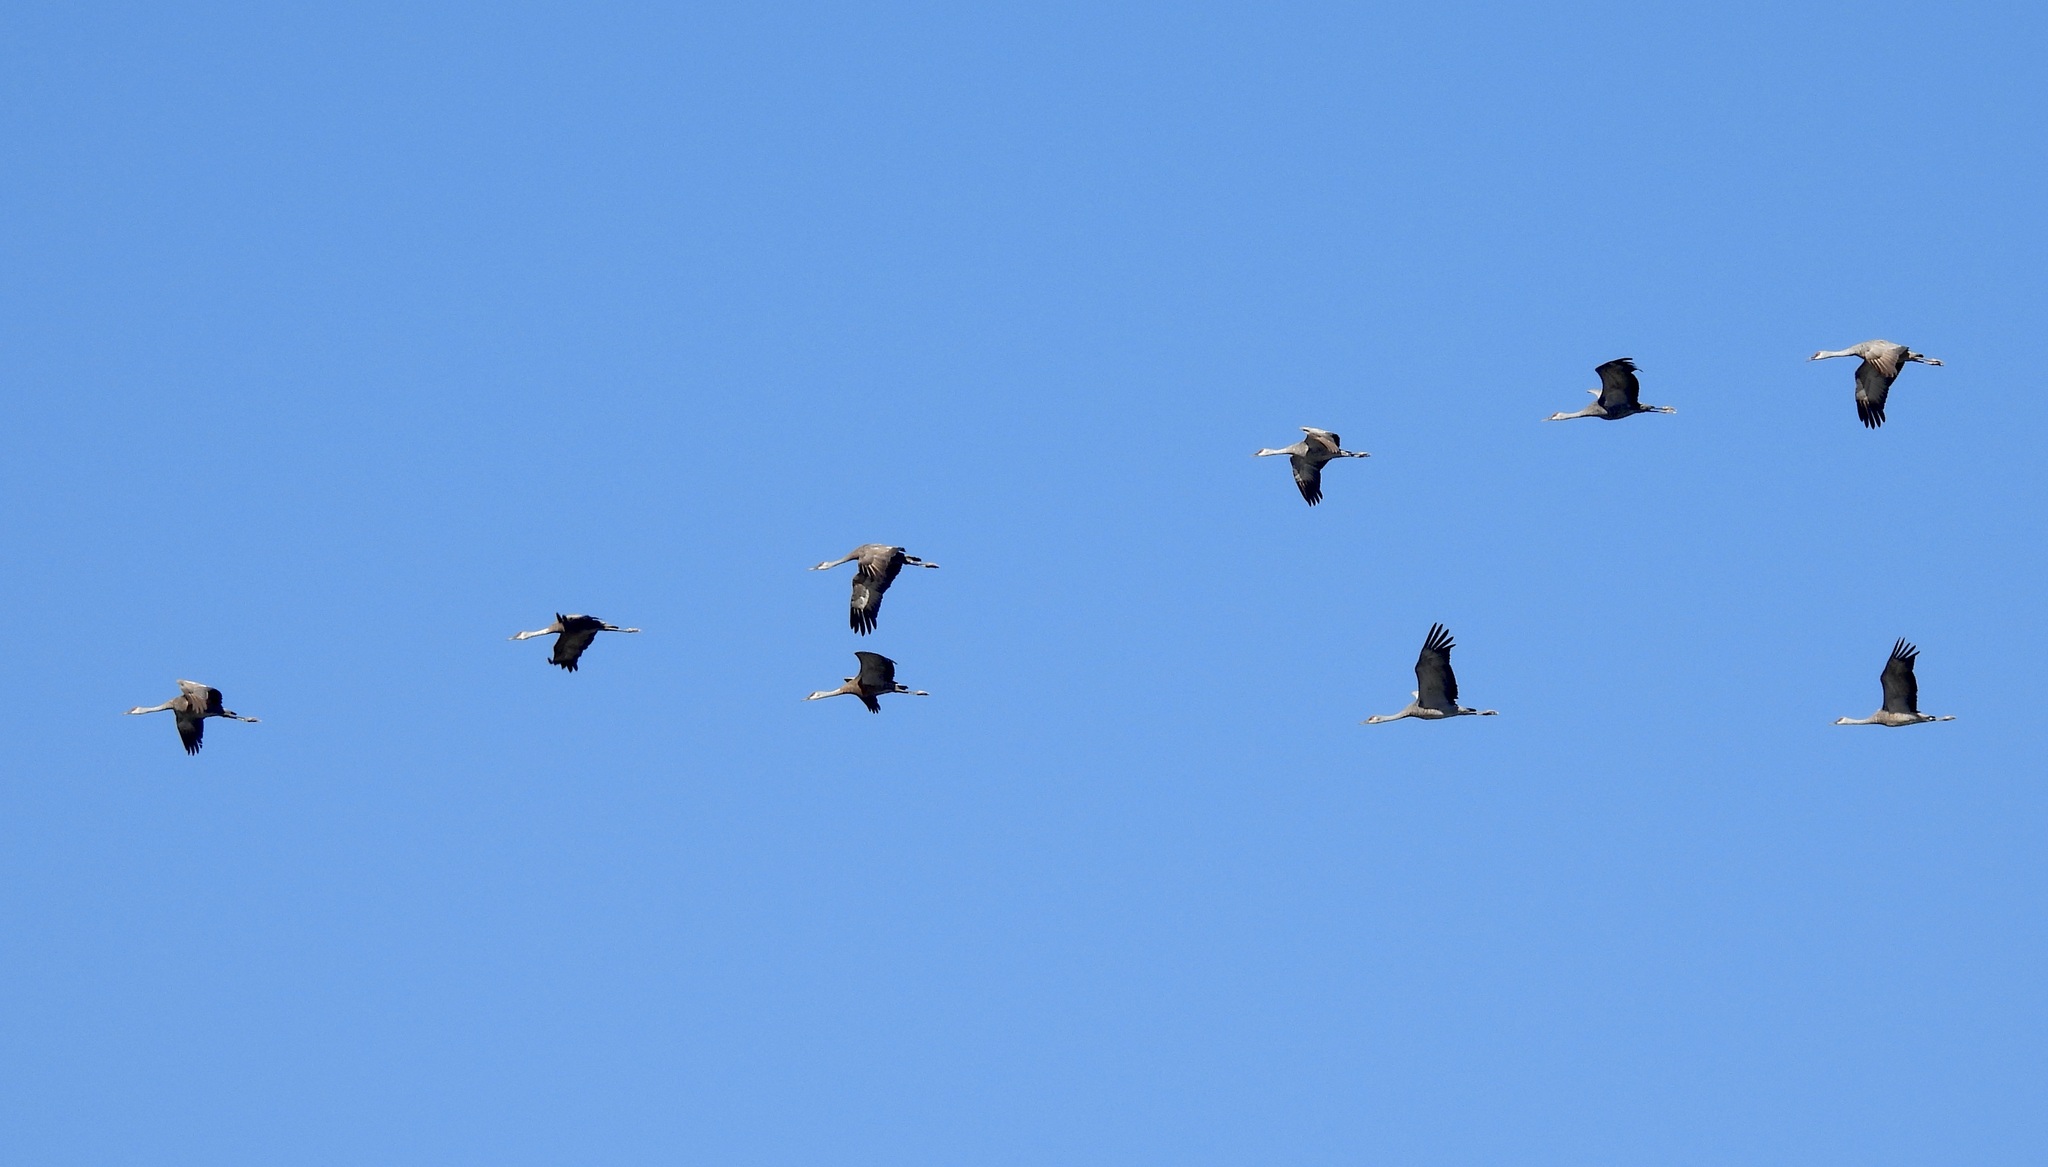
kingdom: Animalia
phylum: Chordata
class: Aves
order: Gruiformes
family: Gruidae
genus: Grus
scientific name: Grus canadensis
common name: Sandhill crane
